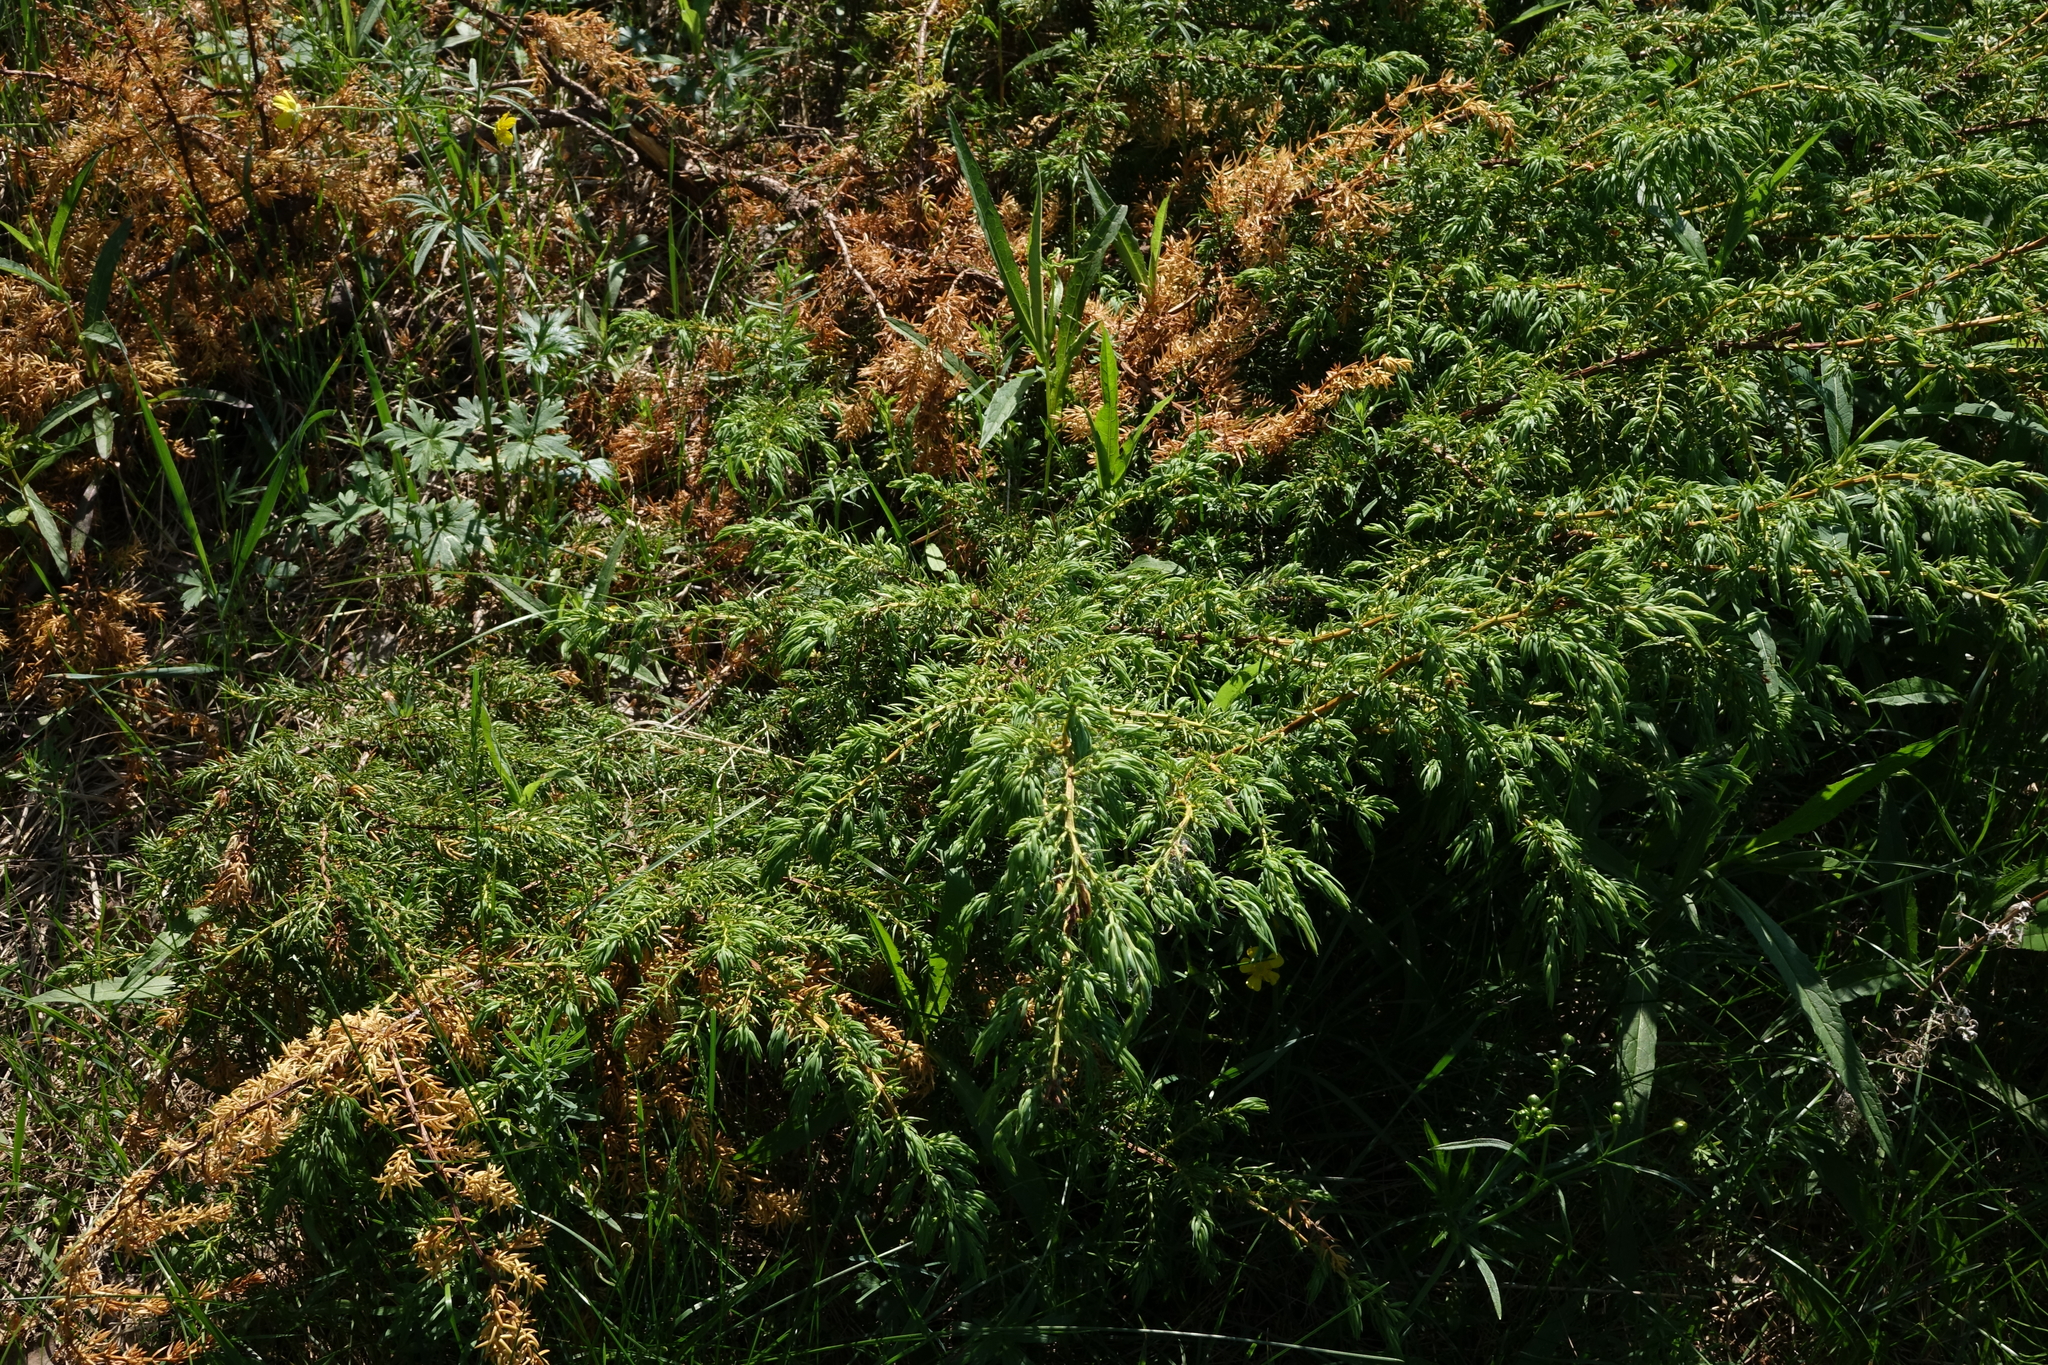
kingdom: Plantae
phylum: Tracheophyta
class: Pinopsida
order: Pinales
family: Cupressaceae
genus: Juniperus
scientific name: Juniperus communis
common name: Common juniper
